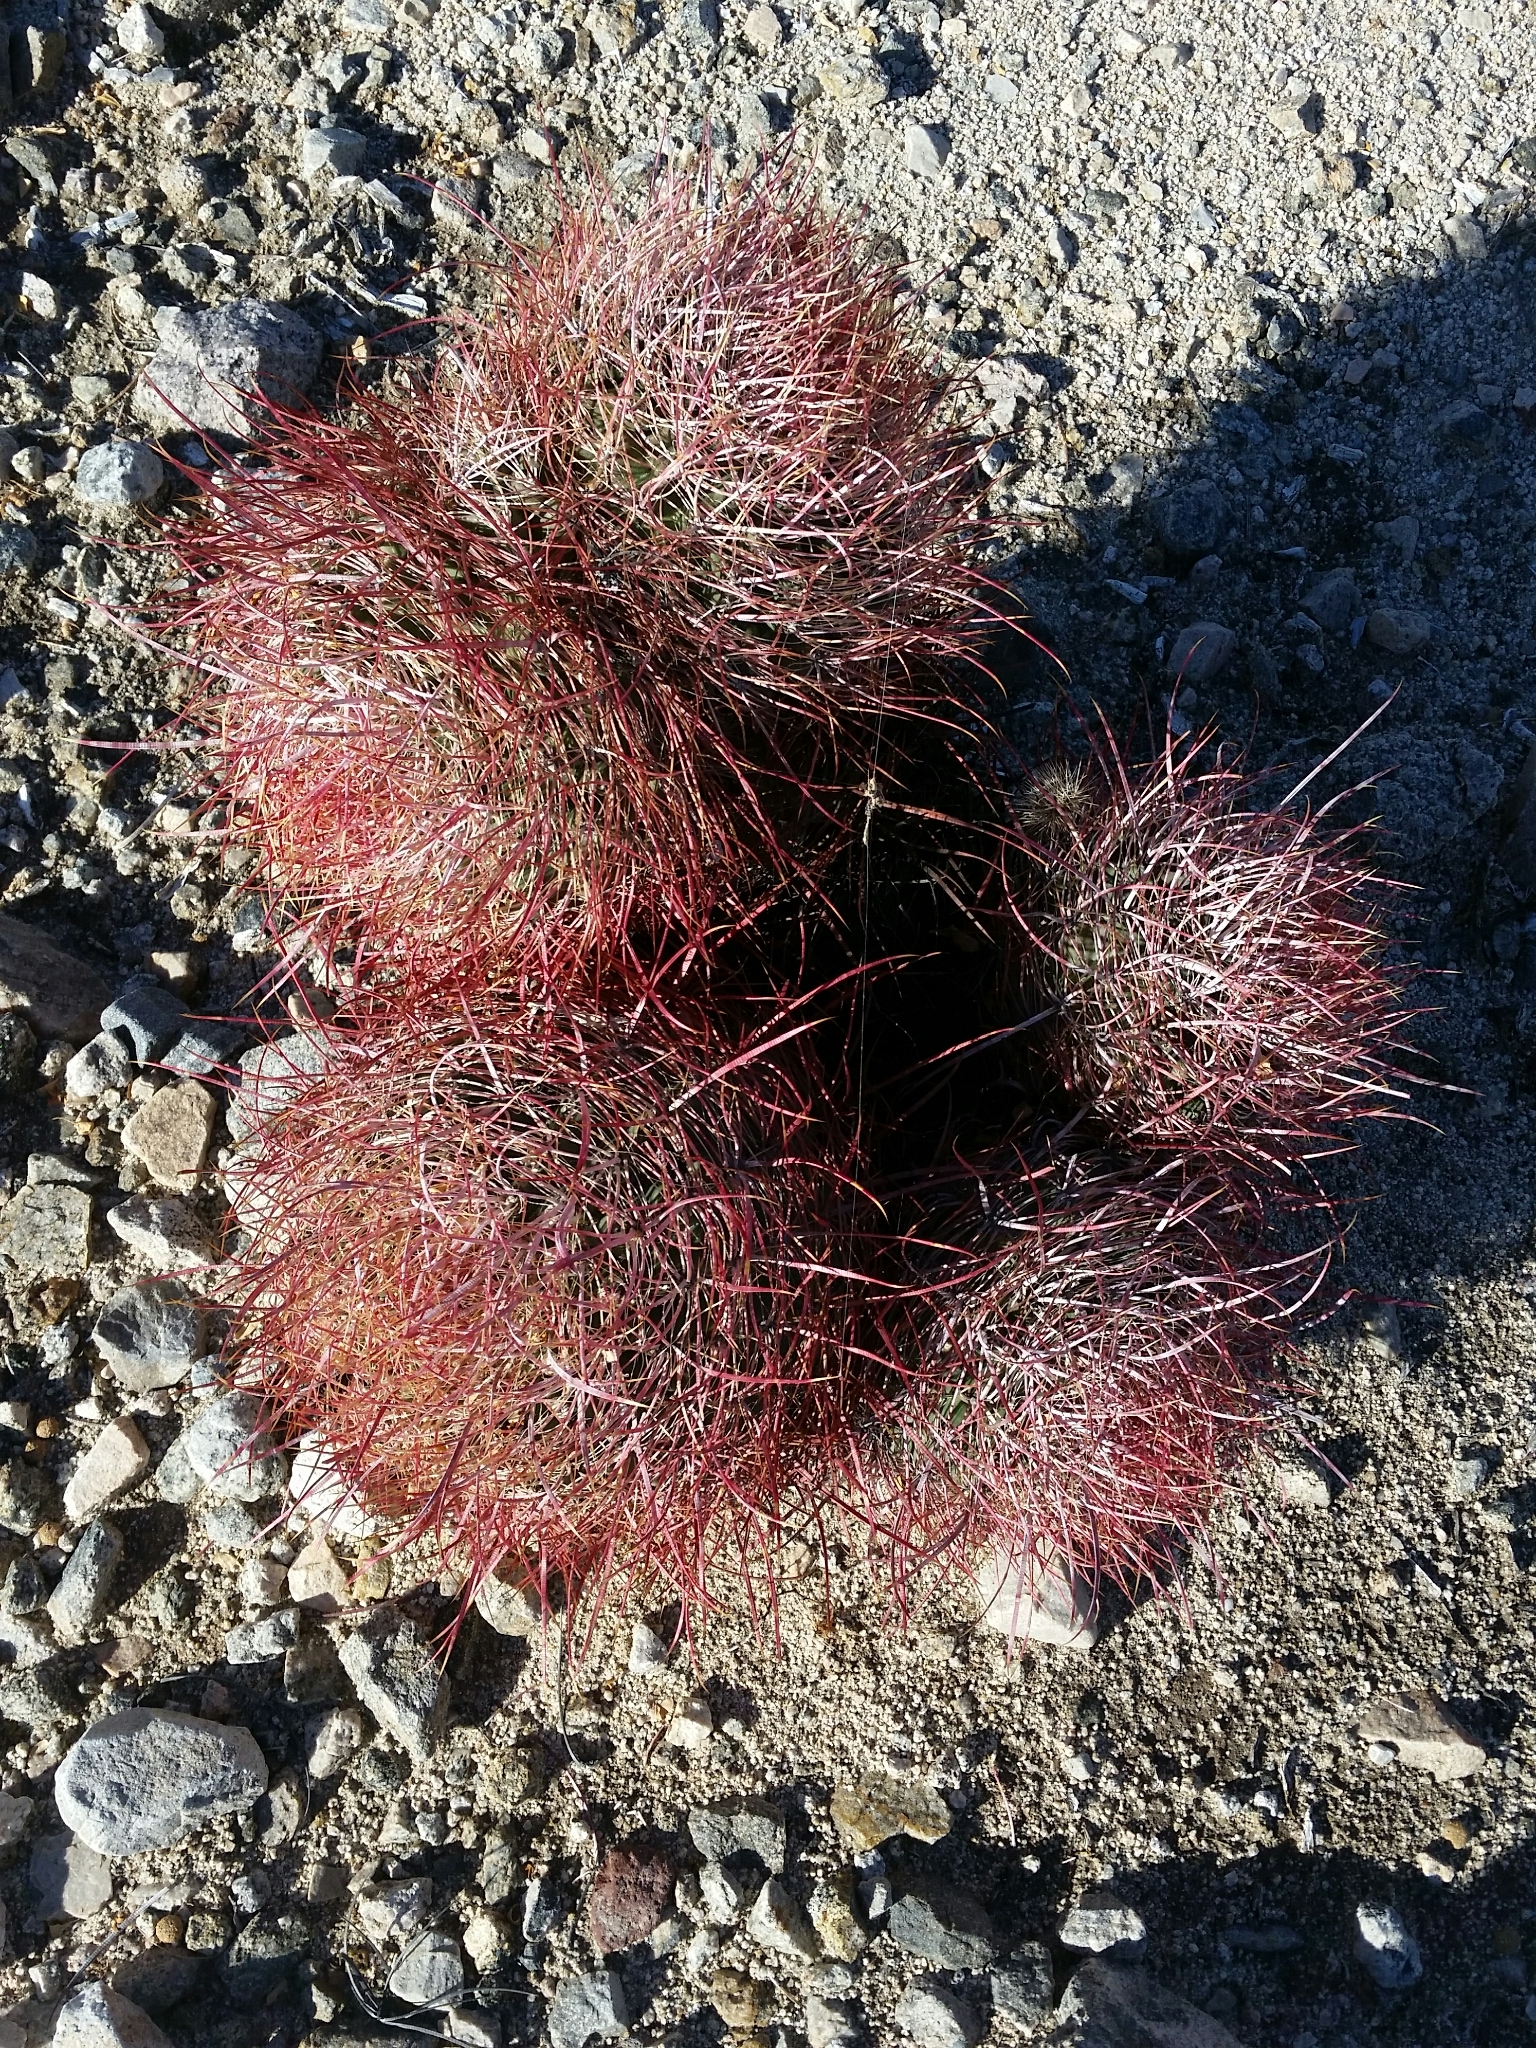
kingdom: Plantae
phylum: Tracheophyta
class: Magnoliopsida
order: Caryophyllales
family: Cactaceae
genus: Ferocactus
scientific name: Ferocactus cylindraceus
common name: California barrel cactus
